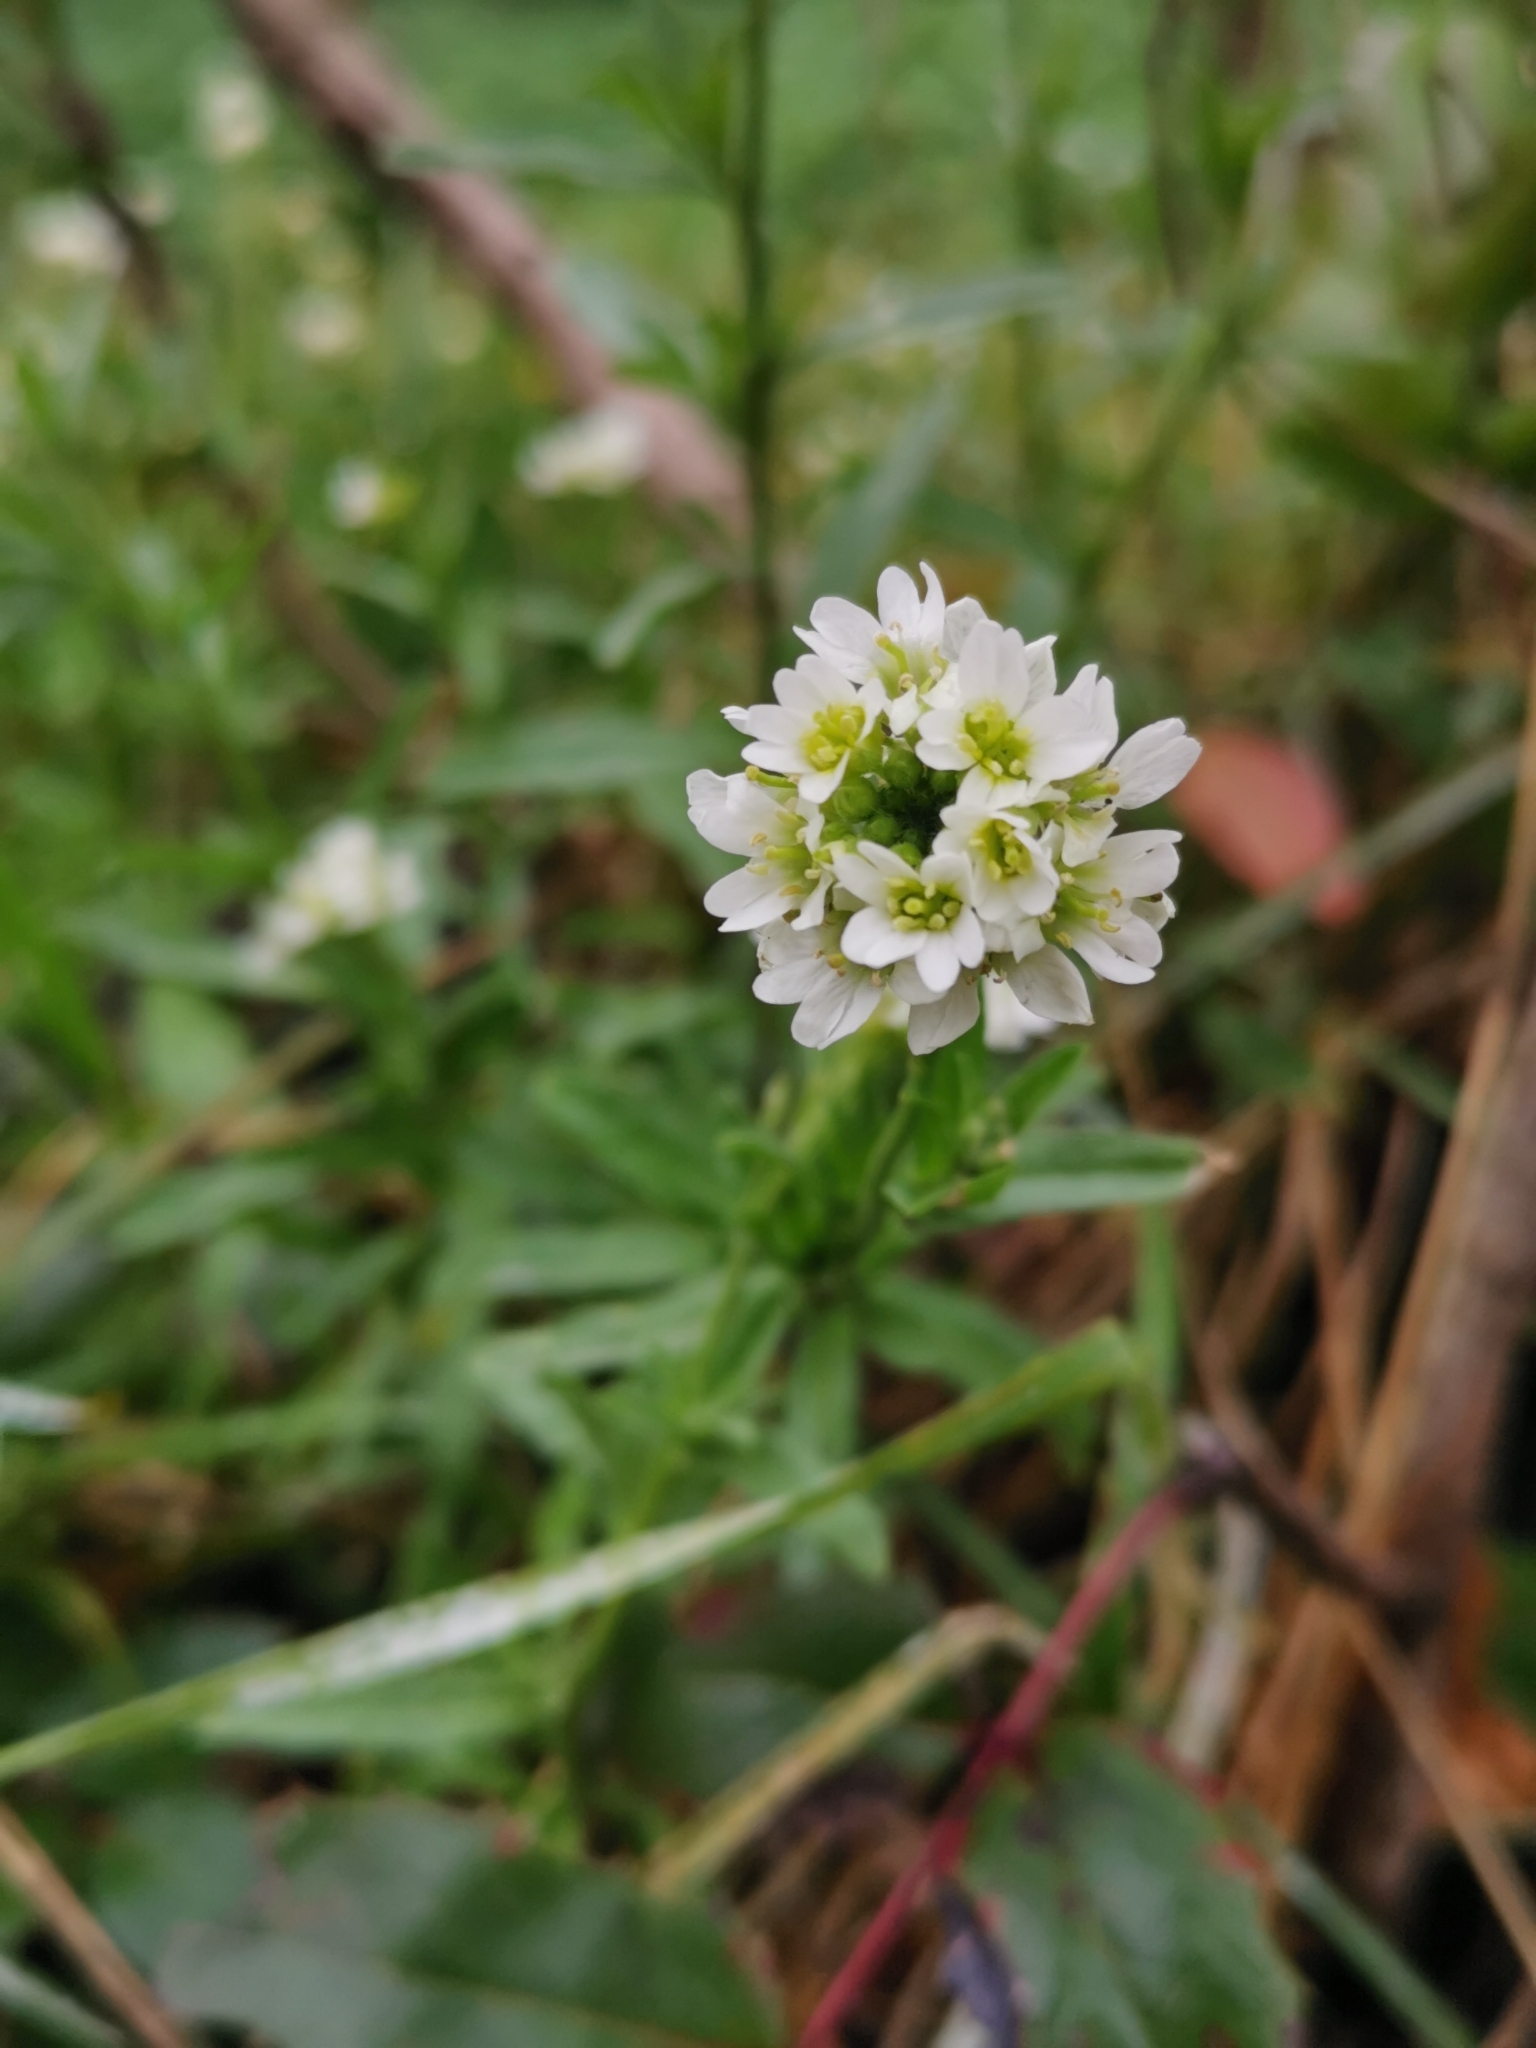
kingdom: Plantae
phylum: Tracheophyta
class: Magnoliopsida
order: Brassicales
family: Brassicaceae
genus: Berteroa
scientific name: Berteroa incana
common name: Hoary alison
